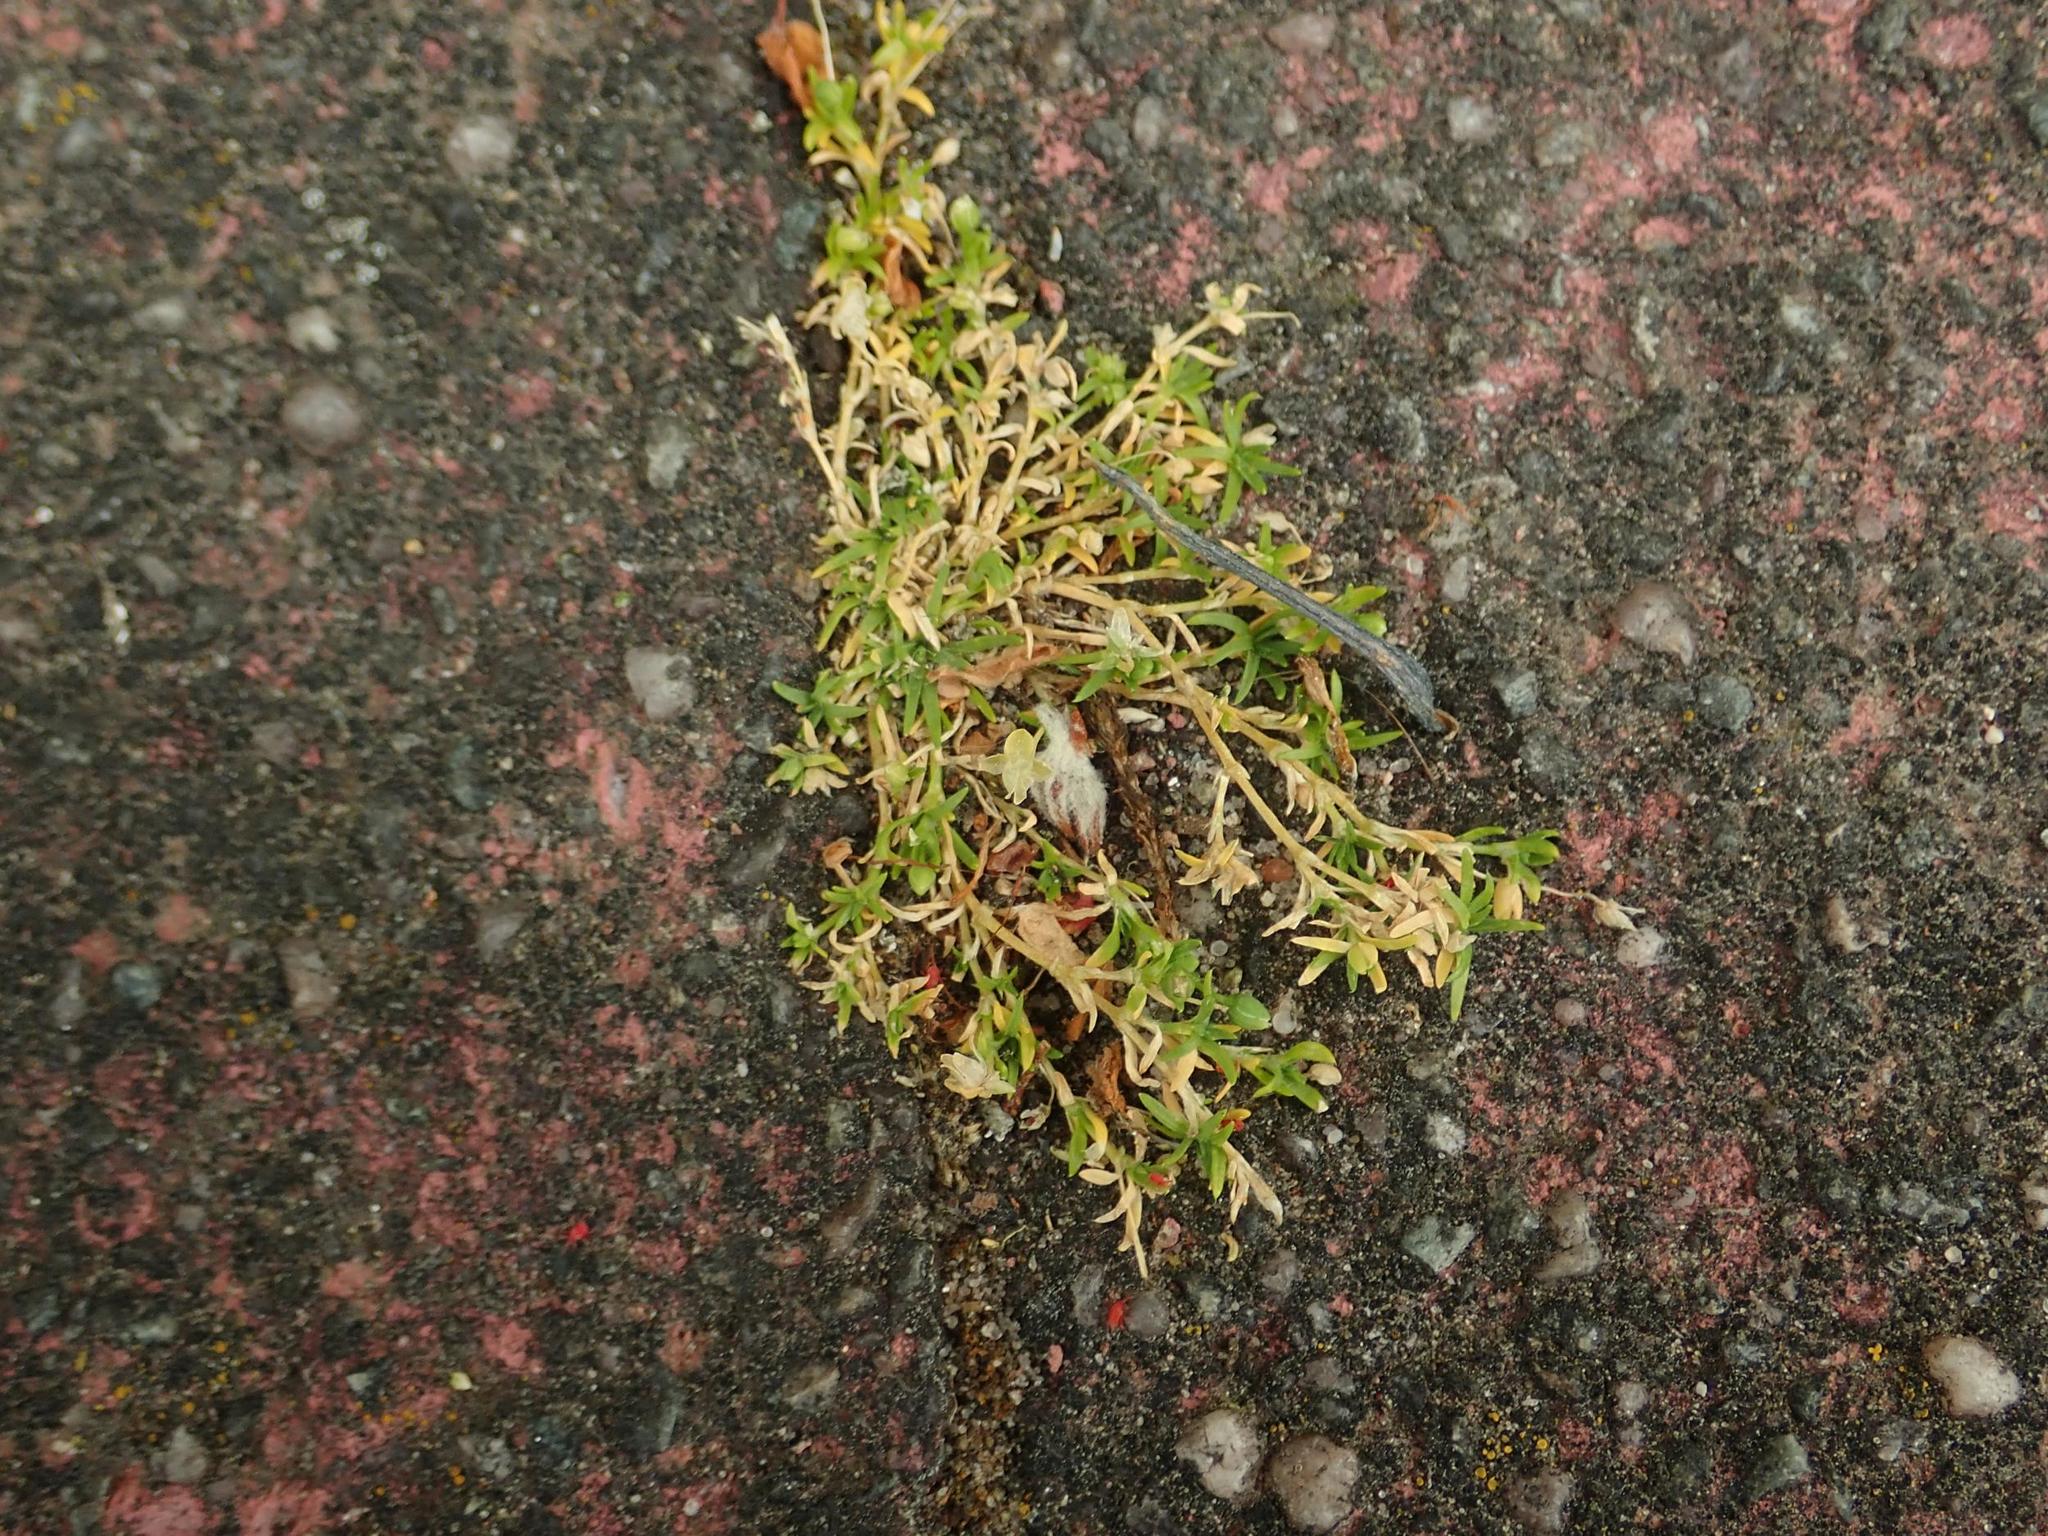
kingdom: Plantae
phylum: Tracheophyta
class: Magnoliopsida
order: Caryophyllales
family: Caryophyllaceae
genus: Sagina
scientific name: Sagina procumbens
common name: Procumbent pearlwort
